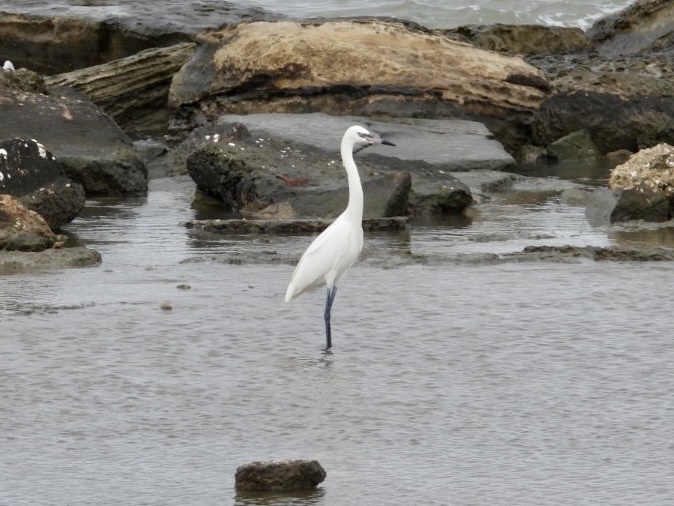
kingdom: Animalia
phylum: Chordata
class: Aves
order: Pelecaniformes
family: Ardeidae
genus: Egretta
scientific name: Egretta rufescens
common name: Reddish egret
